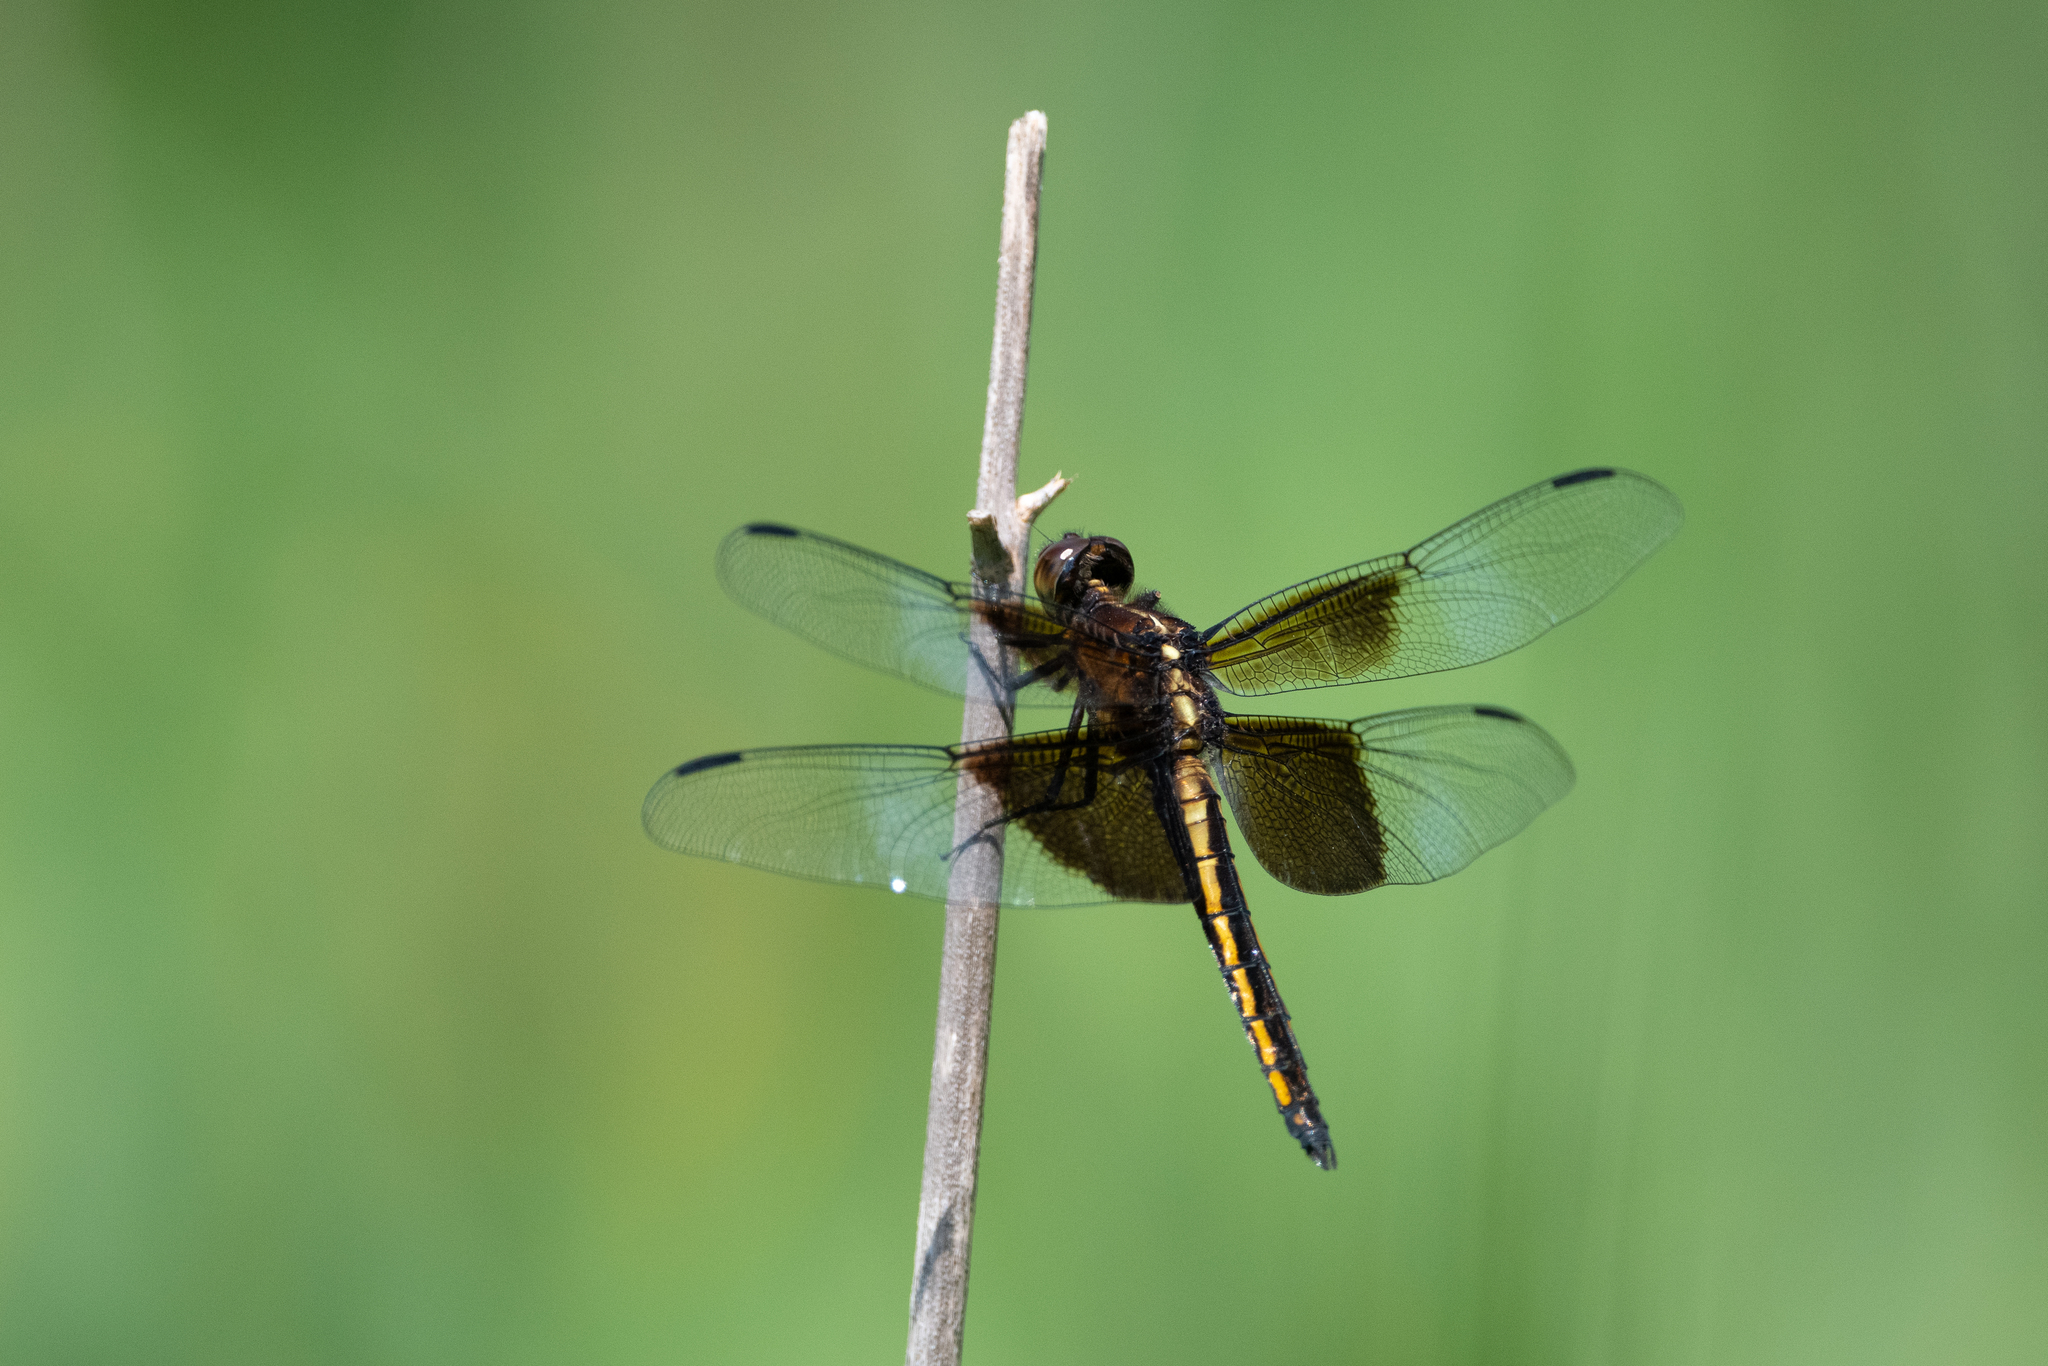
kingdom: Animalia
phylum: Arthropoda
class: Insecta
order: Odonata
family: Libellulidae
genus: Libellula
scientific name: Libellula luctuosa
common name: Widow skimmer
